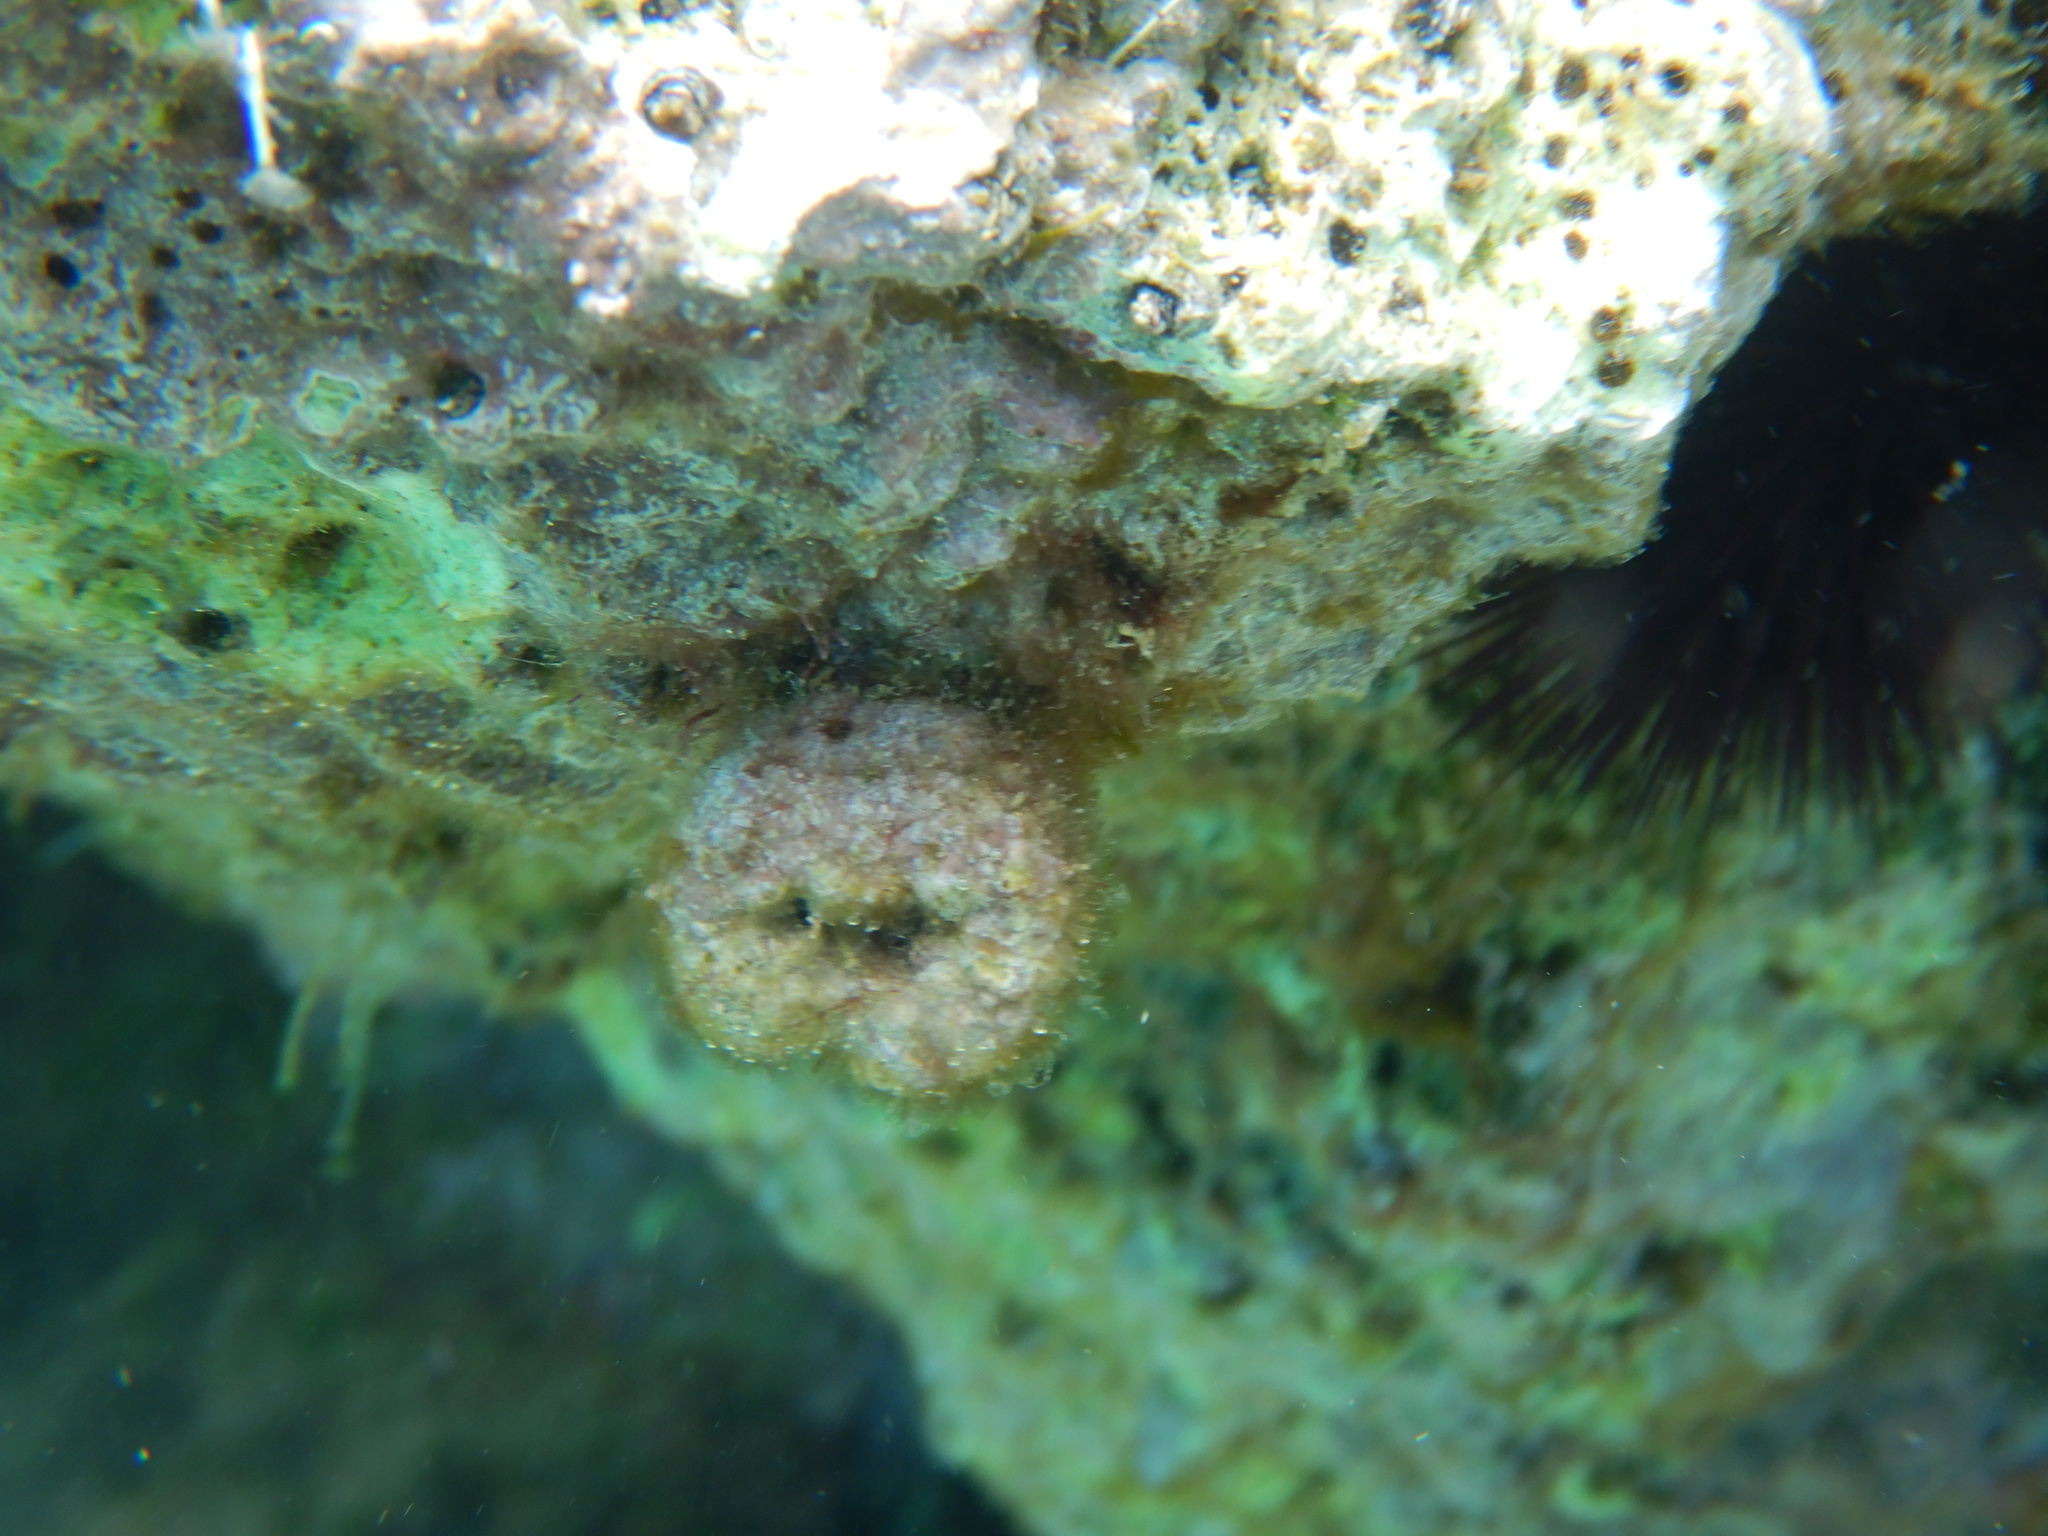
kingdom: Animalia
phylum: Cnidaria
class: Anthozoa
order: Scleractinia
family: Dendrophylliidae
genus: Balanophyllia
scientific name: Balanophyllia europaea
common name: Scarlet coral
